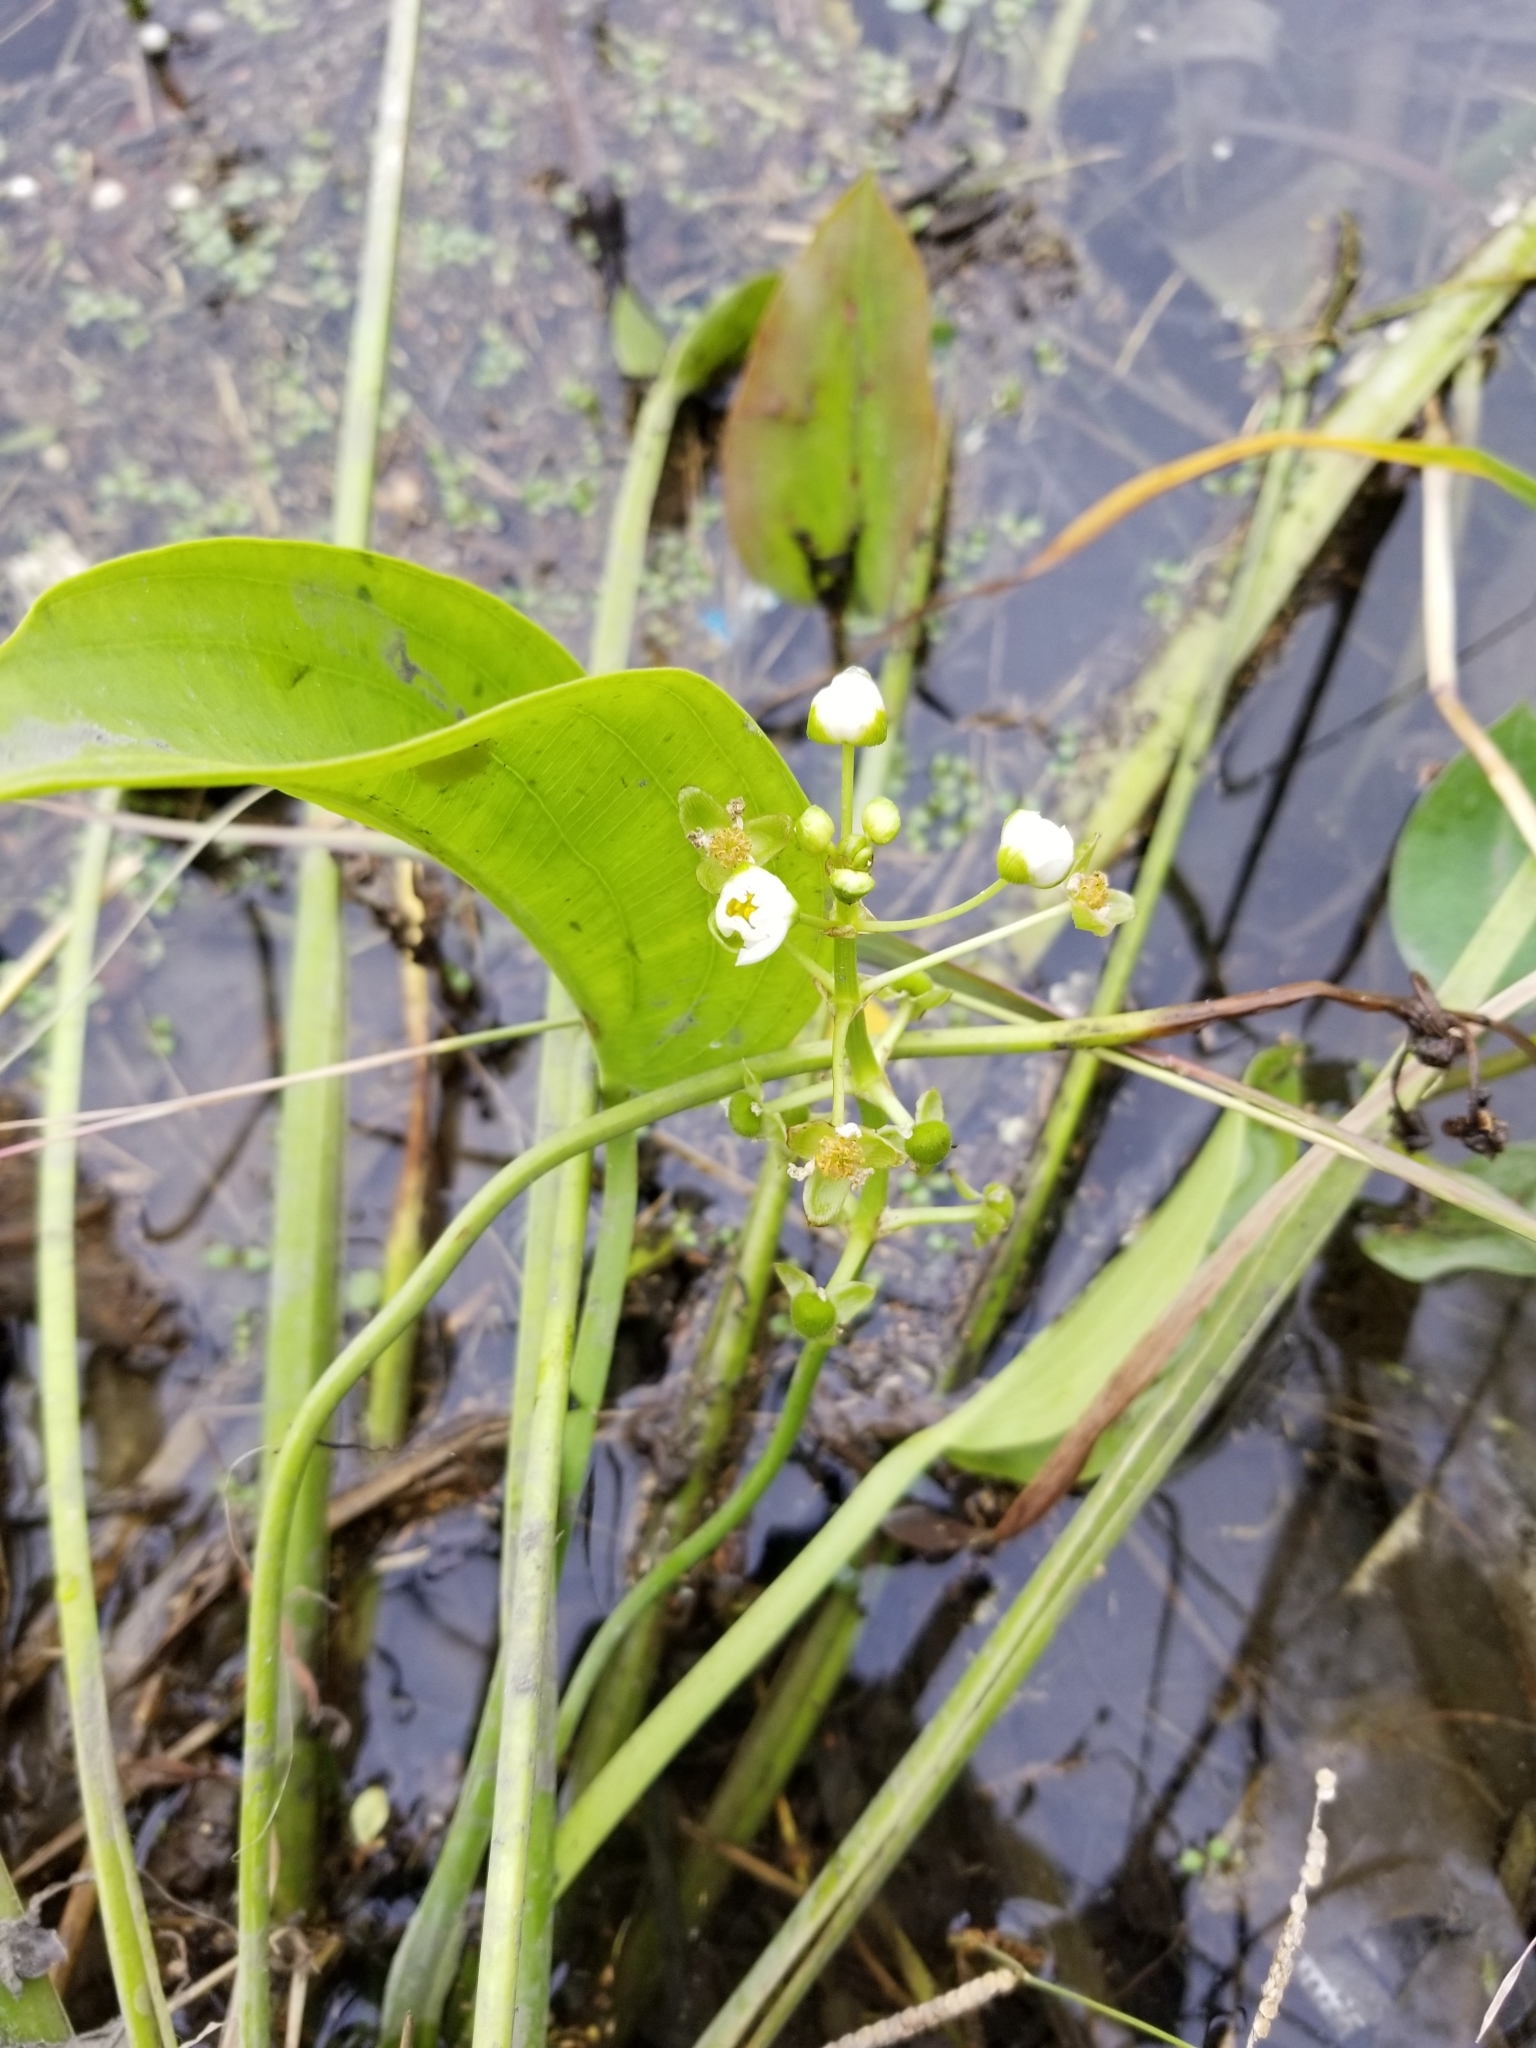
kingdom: Plantae
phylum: Tracheophyta
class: Liliopsida
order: Alismatales
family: Alismataceae
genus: Sagittaria
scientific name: Sagittaria platyphylla
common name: Broad-leaf arrowhead
